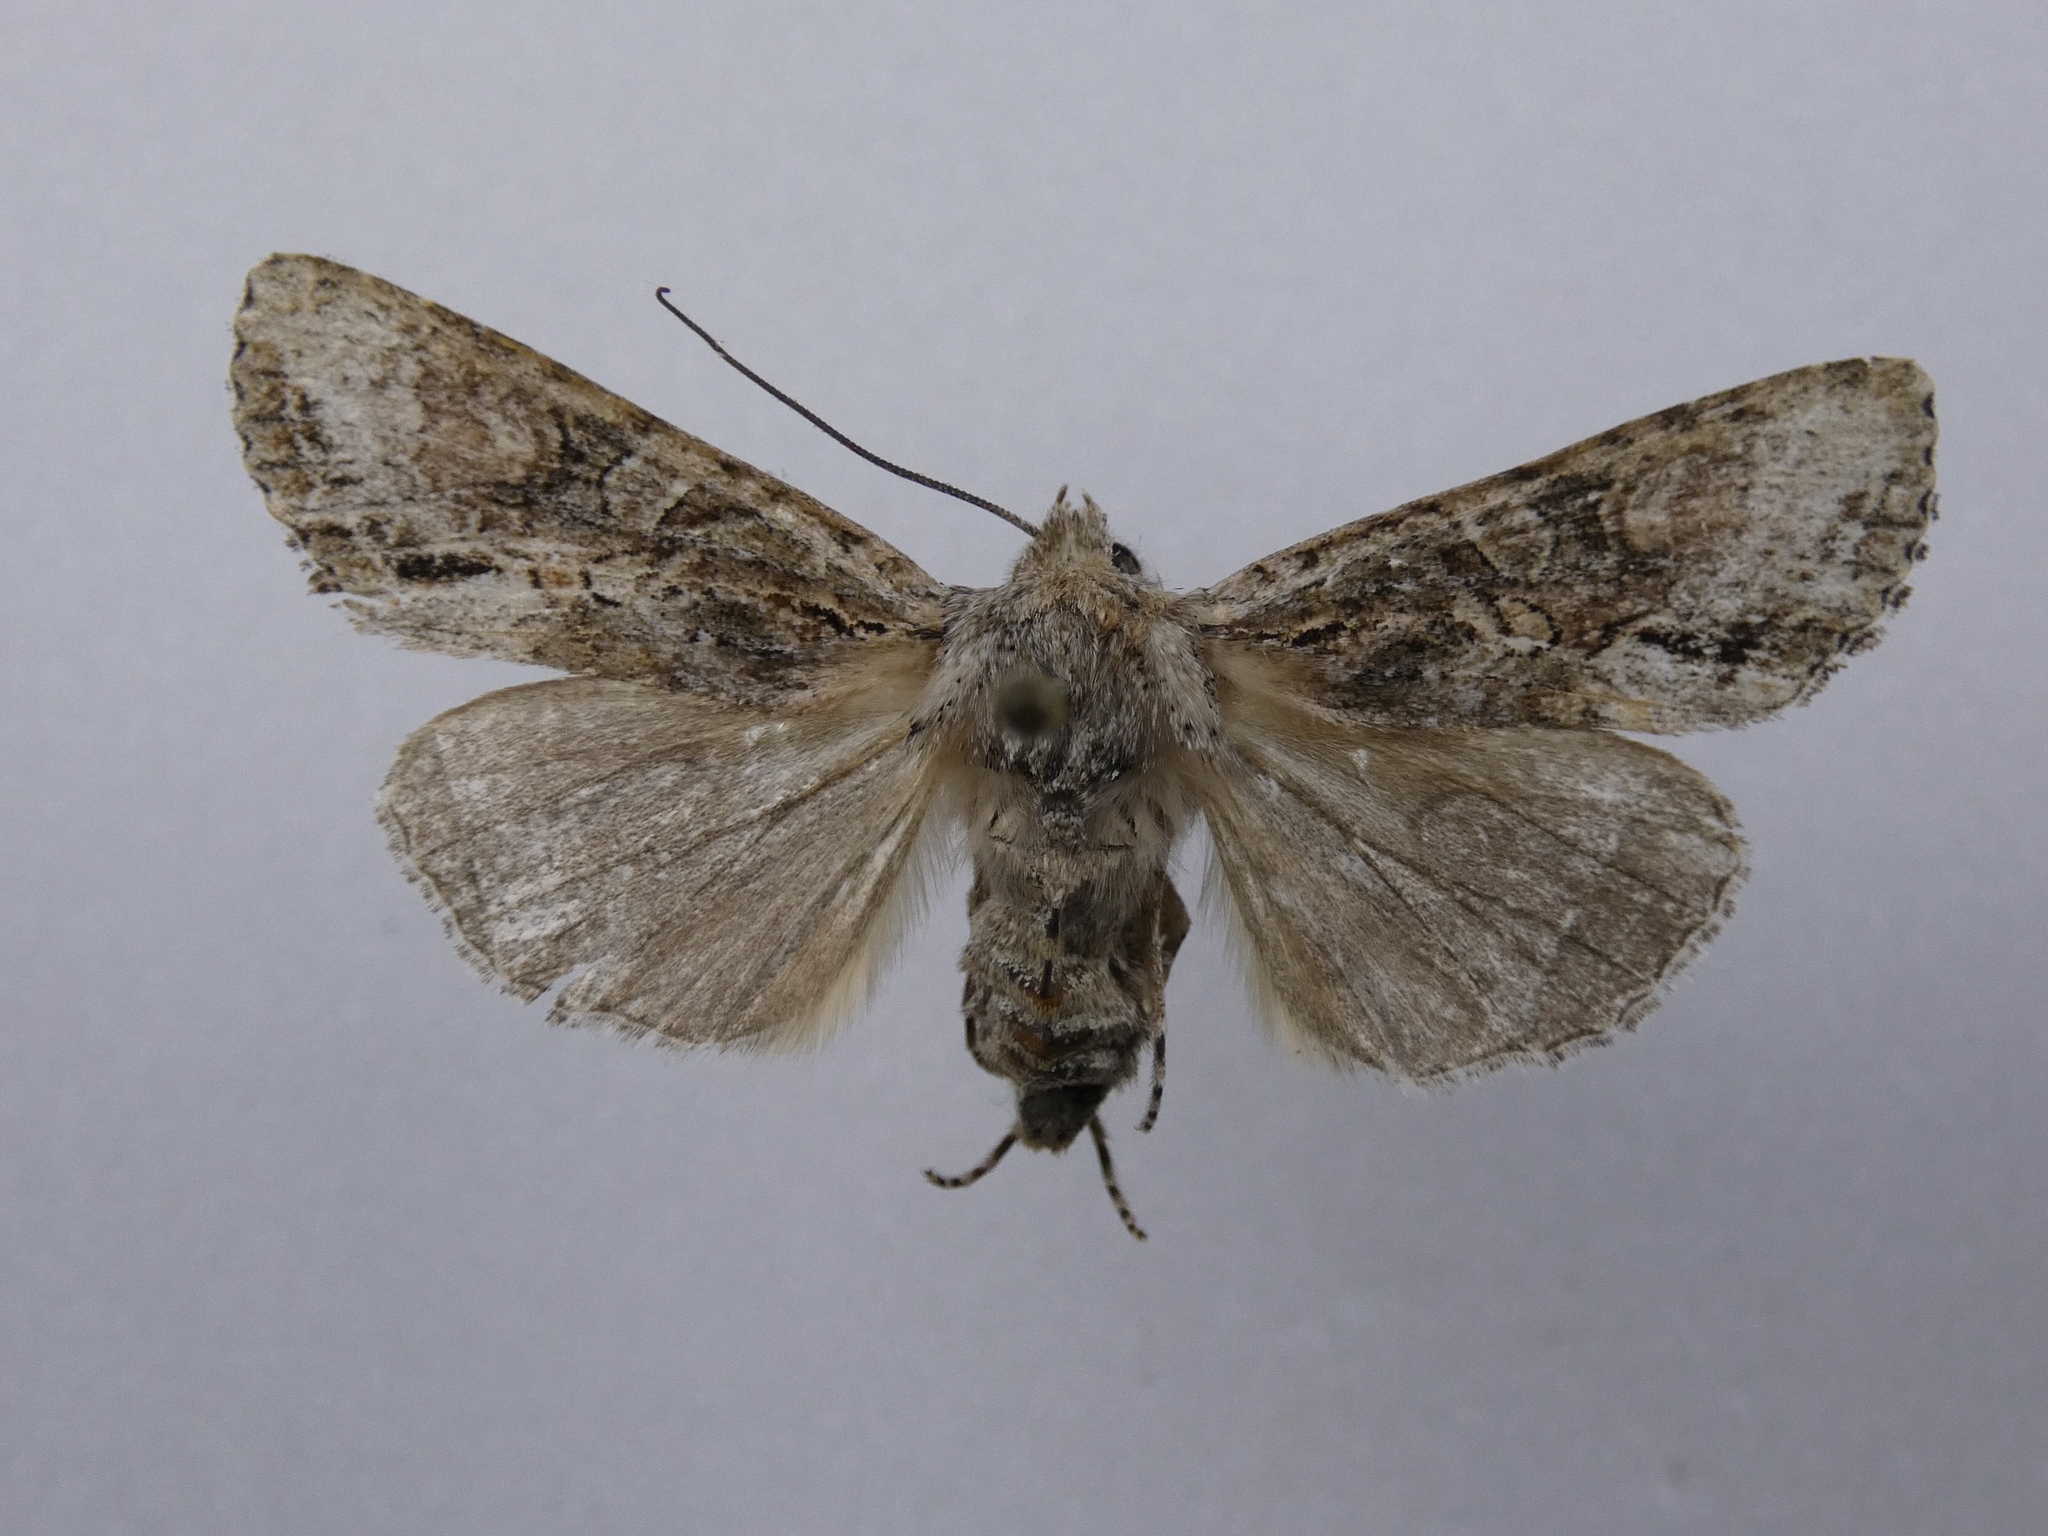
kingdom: Animalia
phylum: Arthropoda
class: Insecta
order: Lepidoptera
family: Noctuidae
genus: Ichneutica
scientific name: Ichneutica mutans
